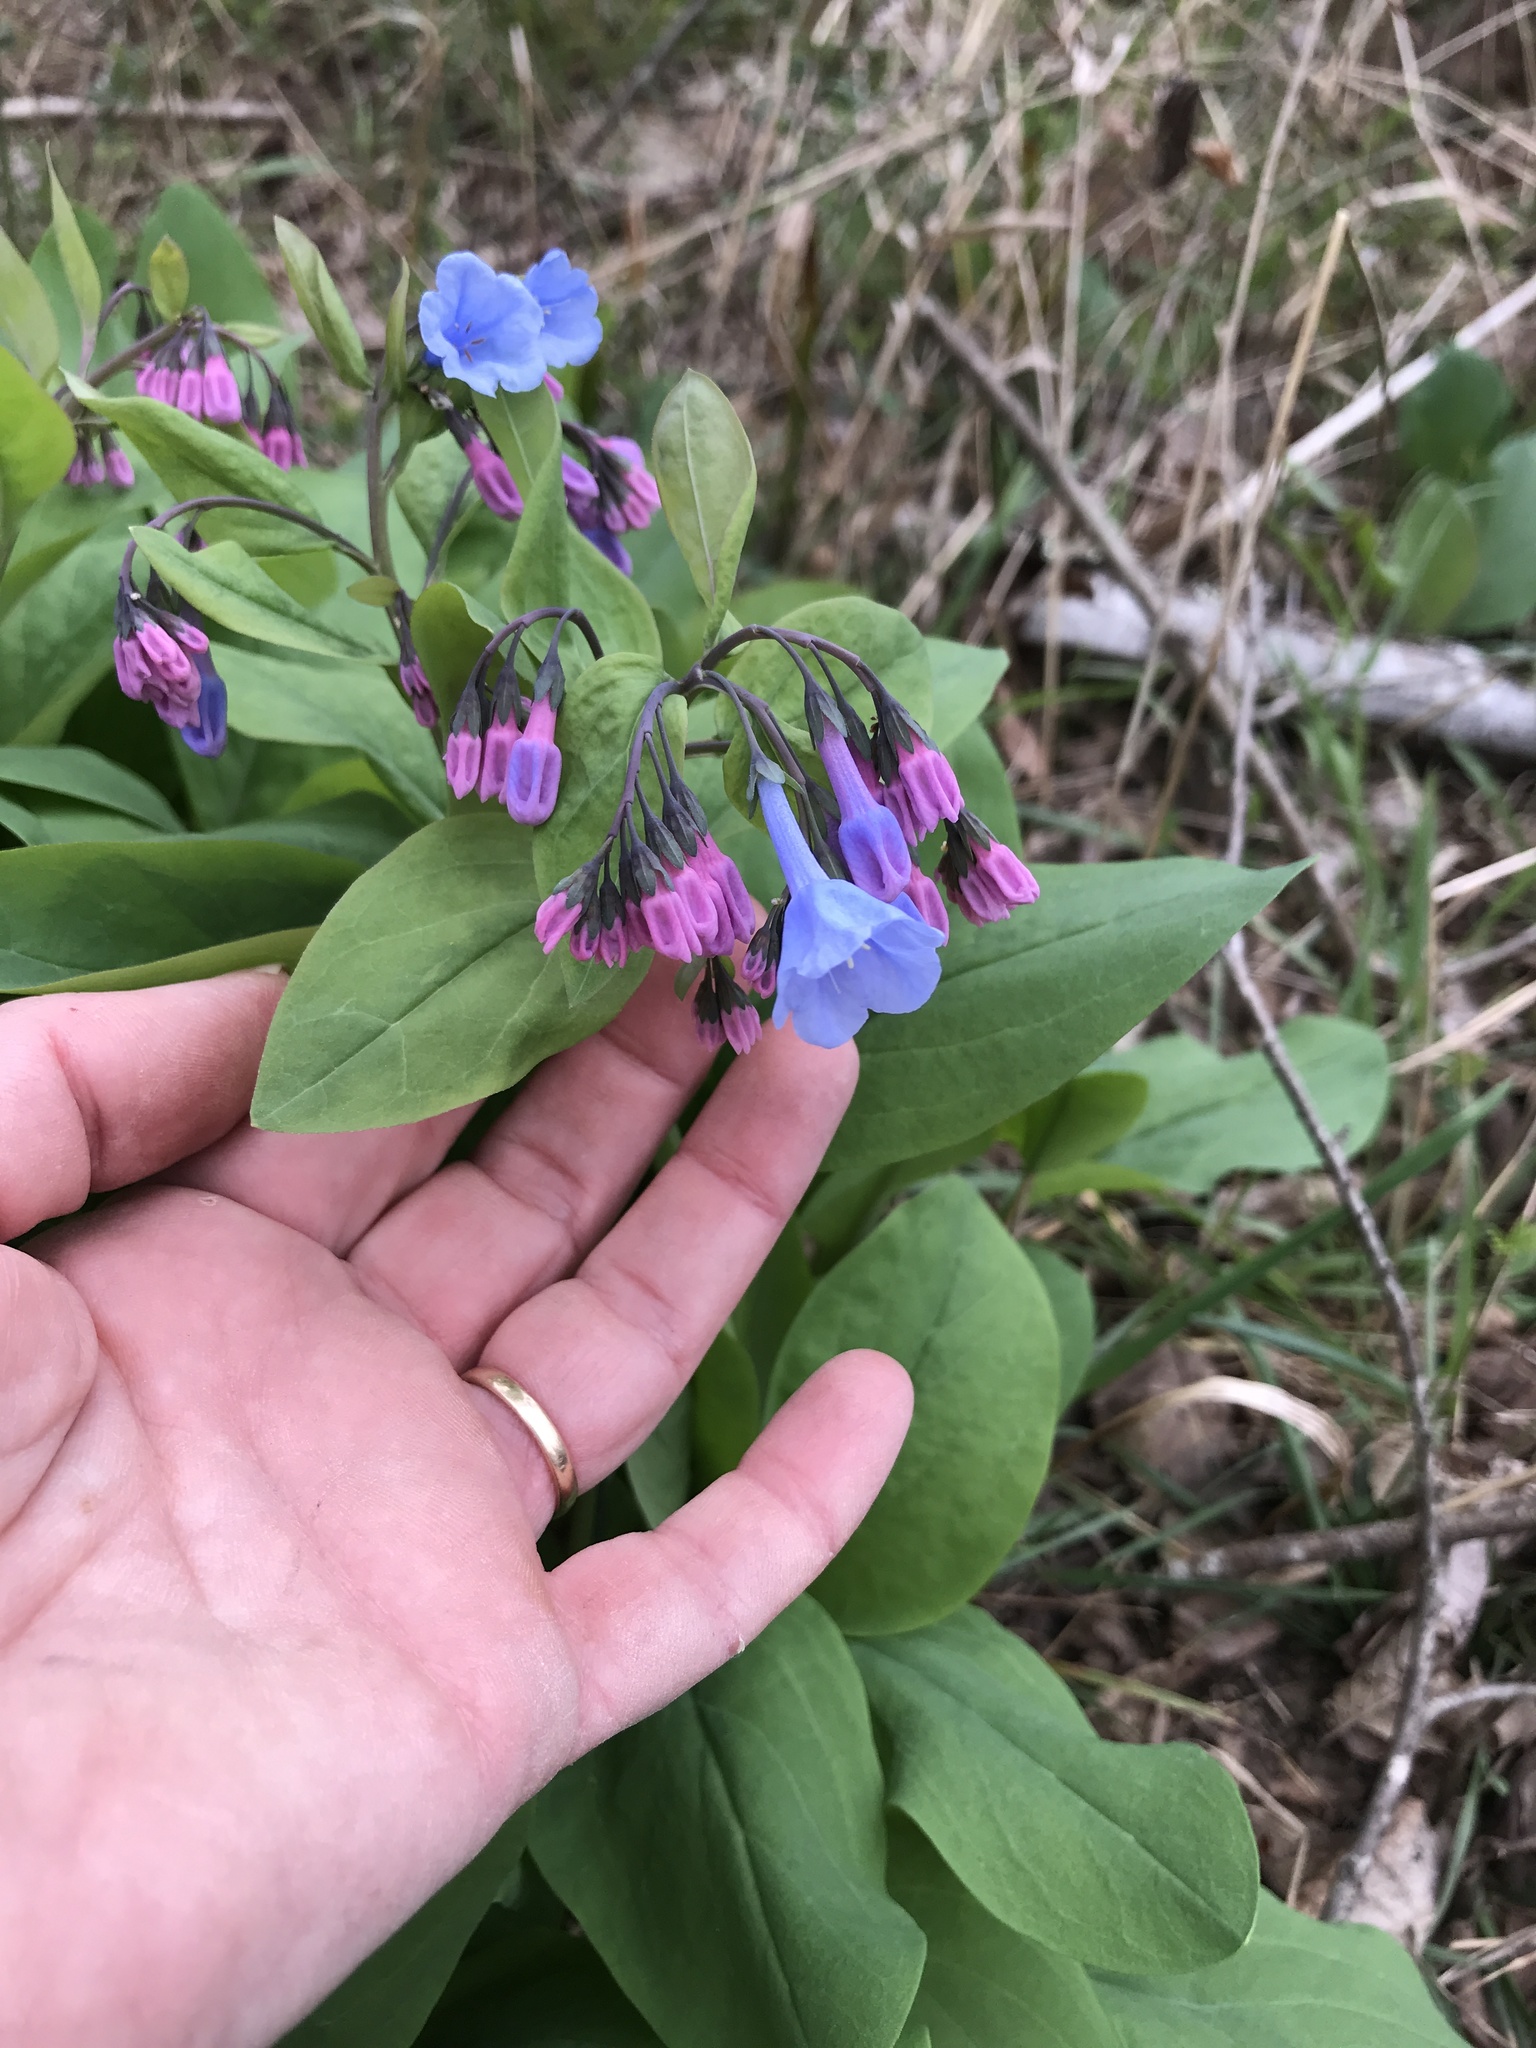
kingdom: Plantae
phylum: Tracheophyta
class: Magnoliopsida
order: Boraginales
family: Boraginaceae
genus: Mertensia
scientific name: Mertensia virginica
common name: Virginia bluebells
